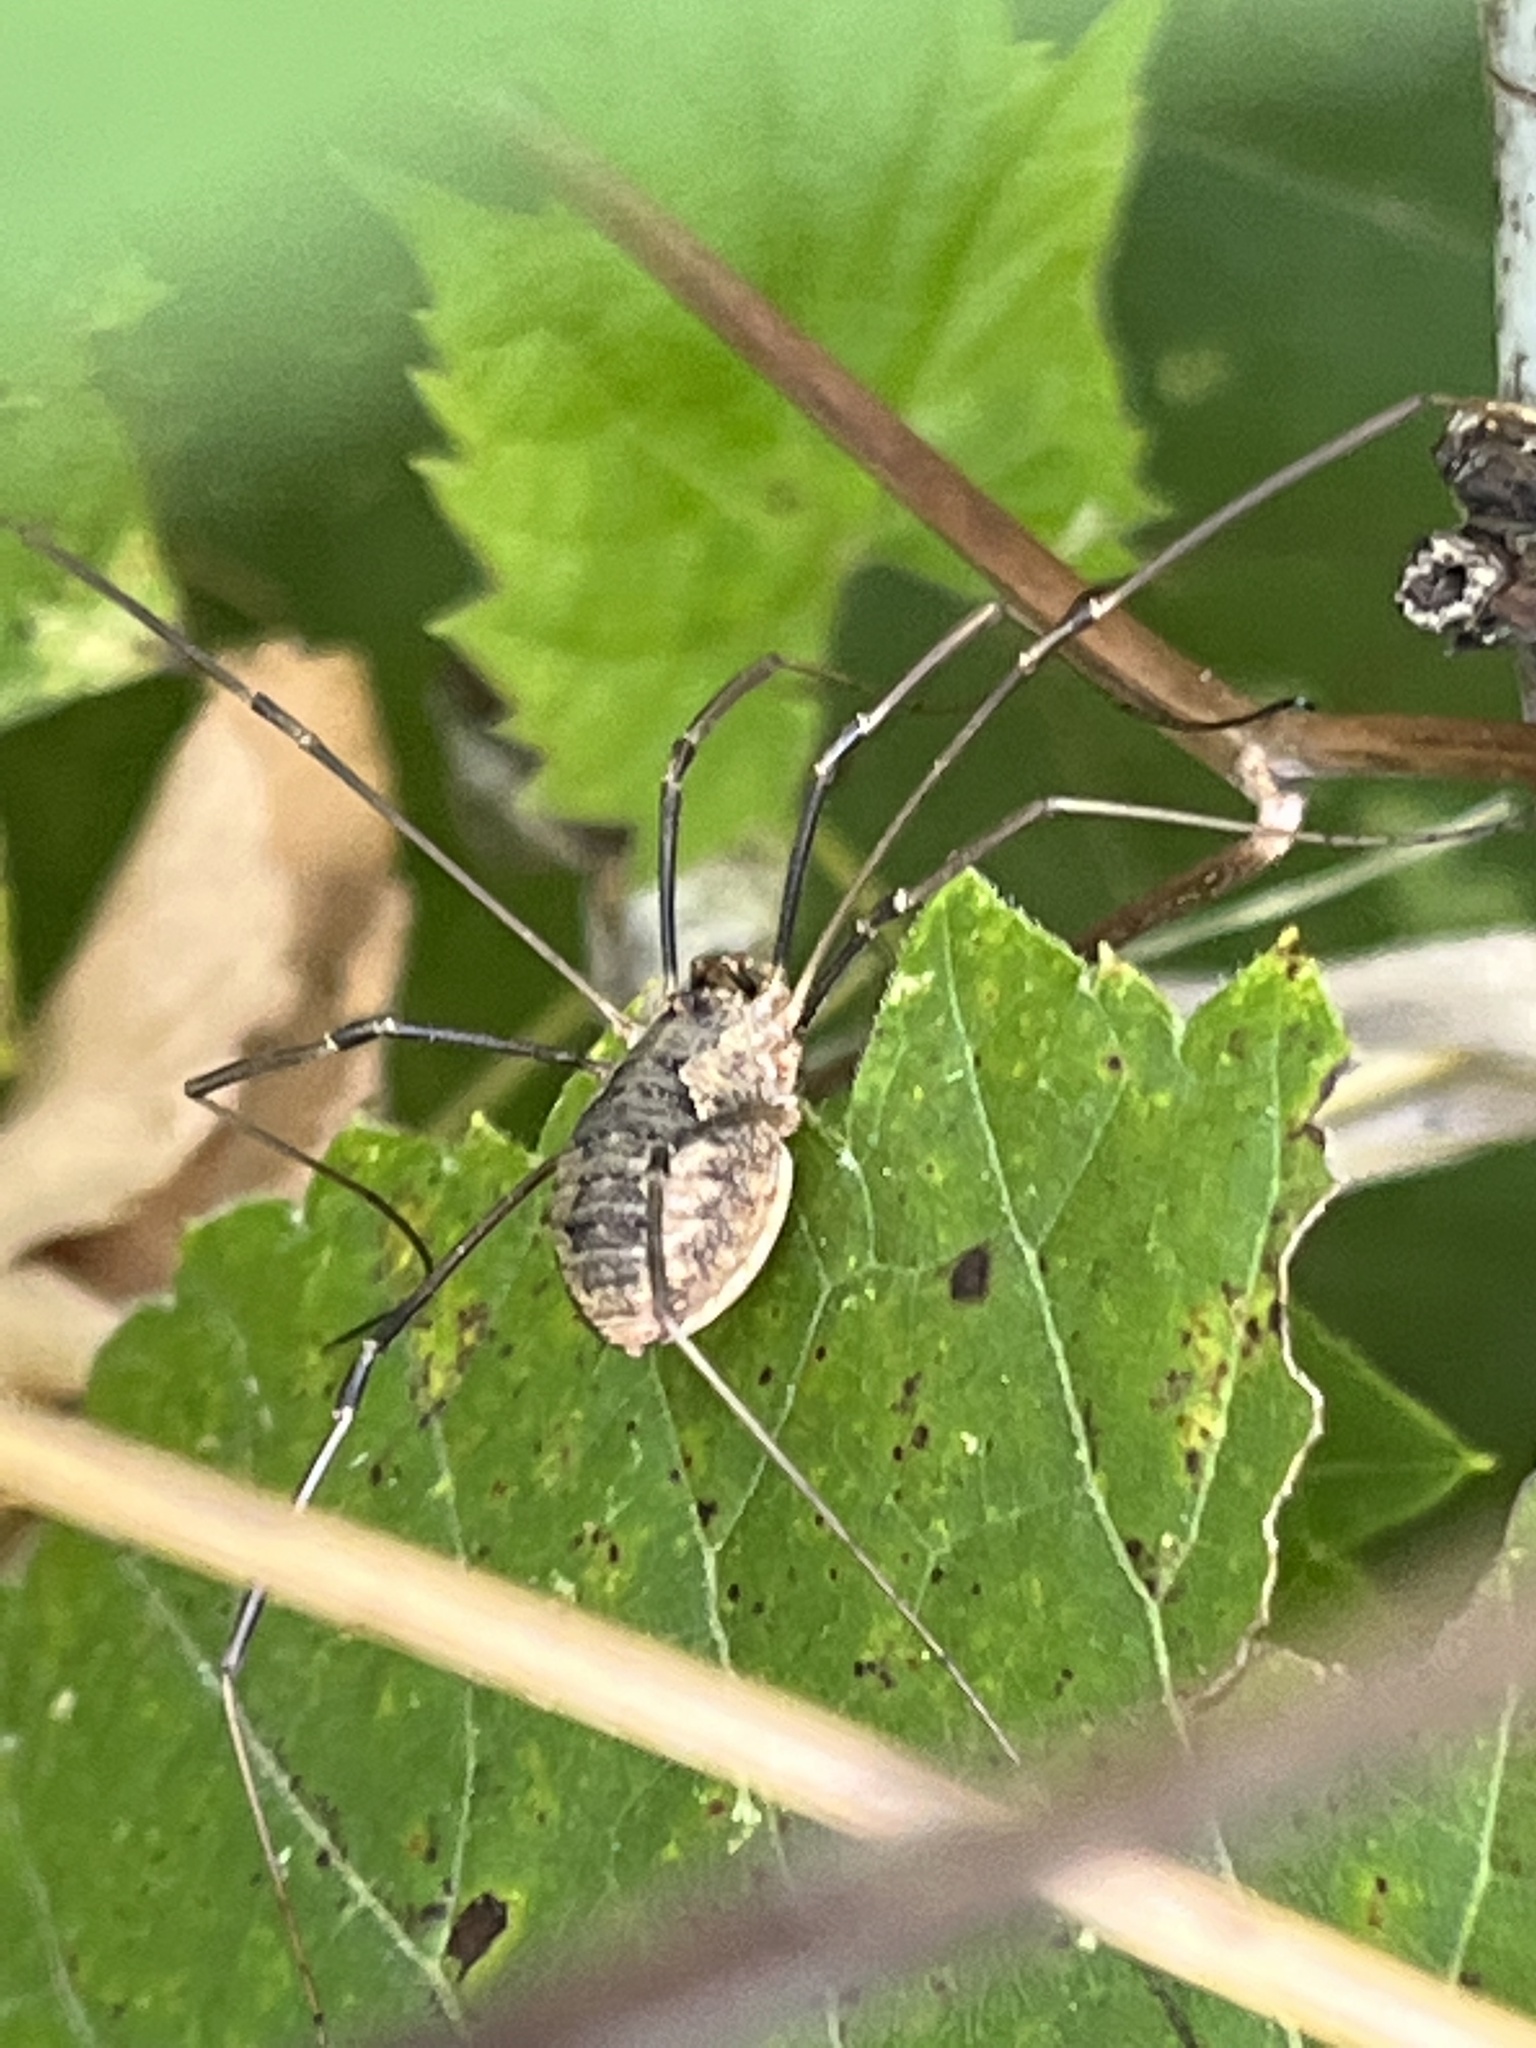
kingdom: Animalia
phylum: Arthropoda
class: Arachnida
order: Opiliones
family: Phalangiidae
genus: Phalangium
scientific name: Phalangium opilio
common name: Daddy longleg
